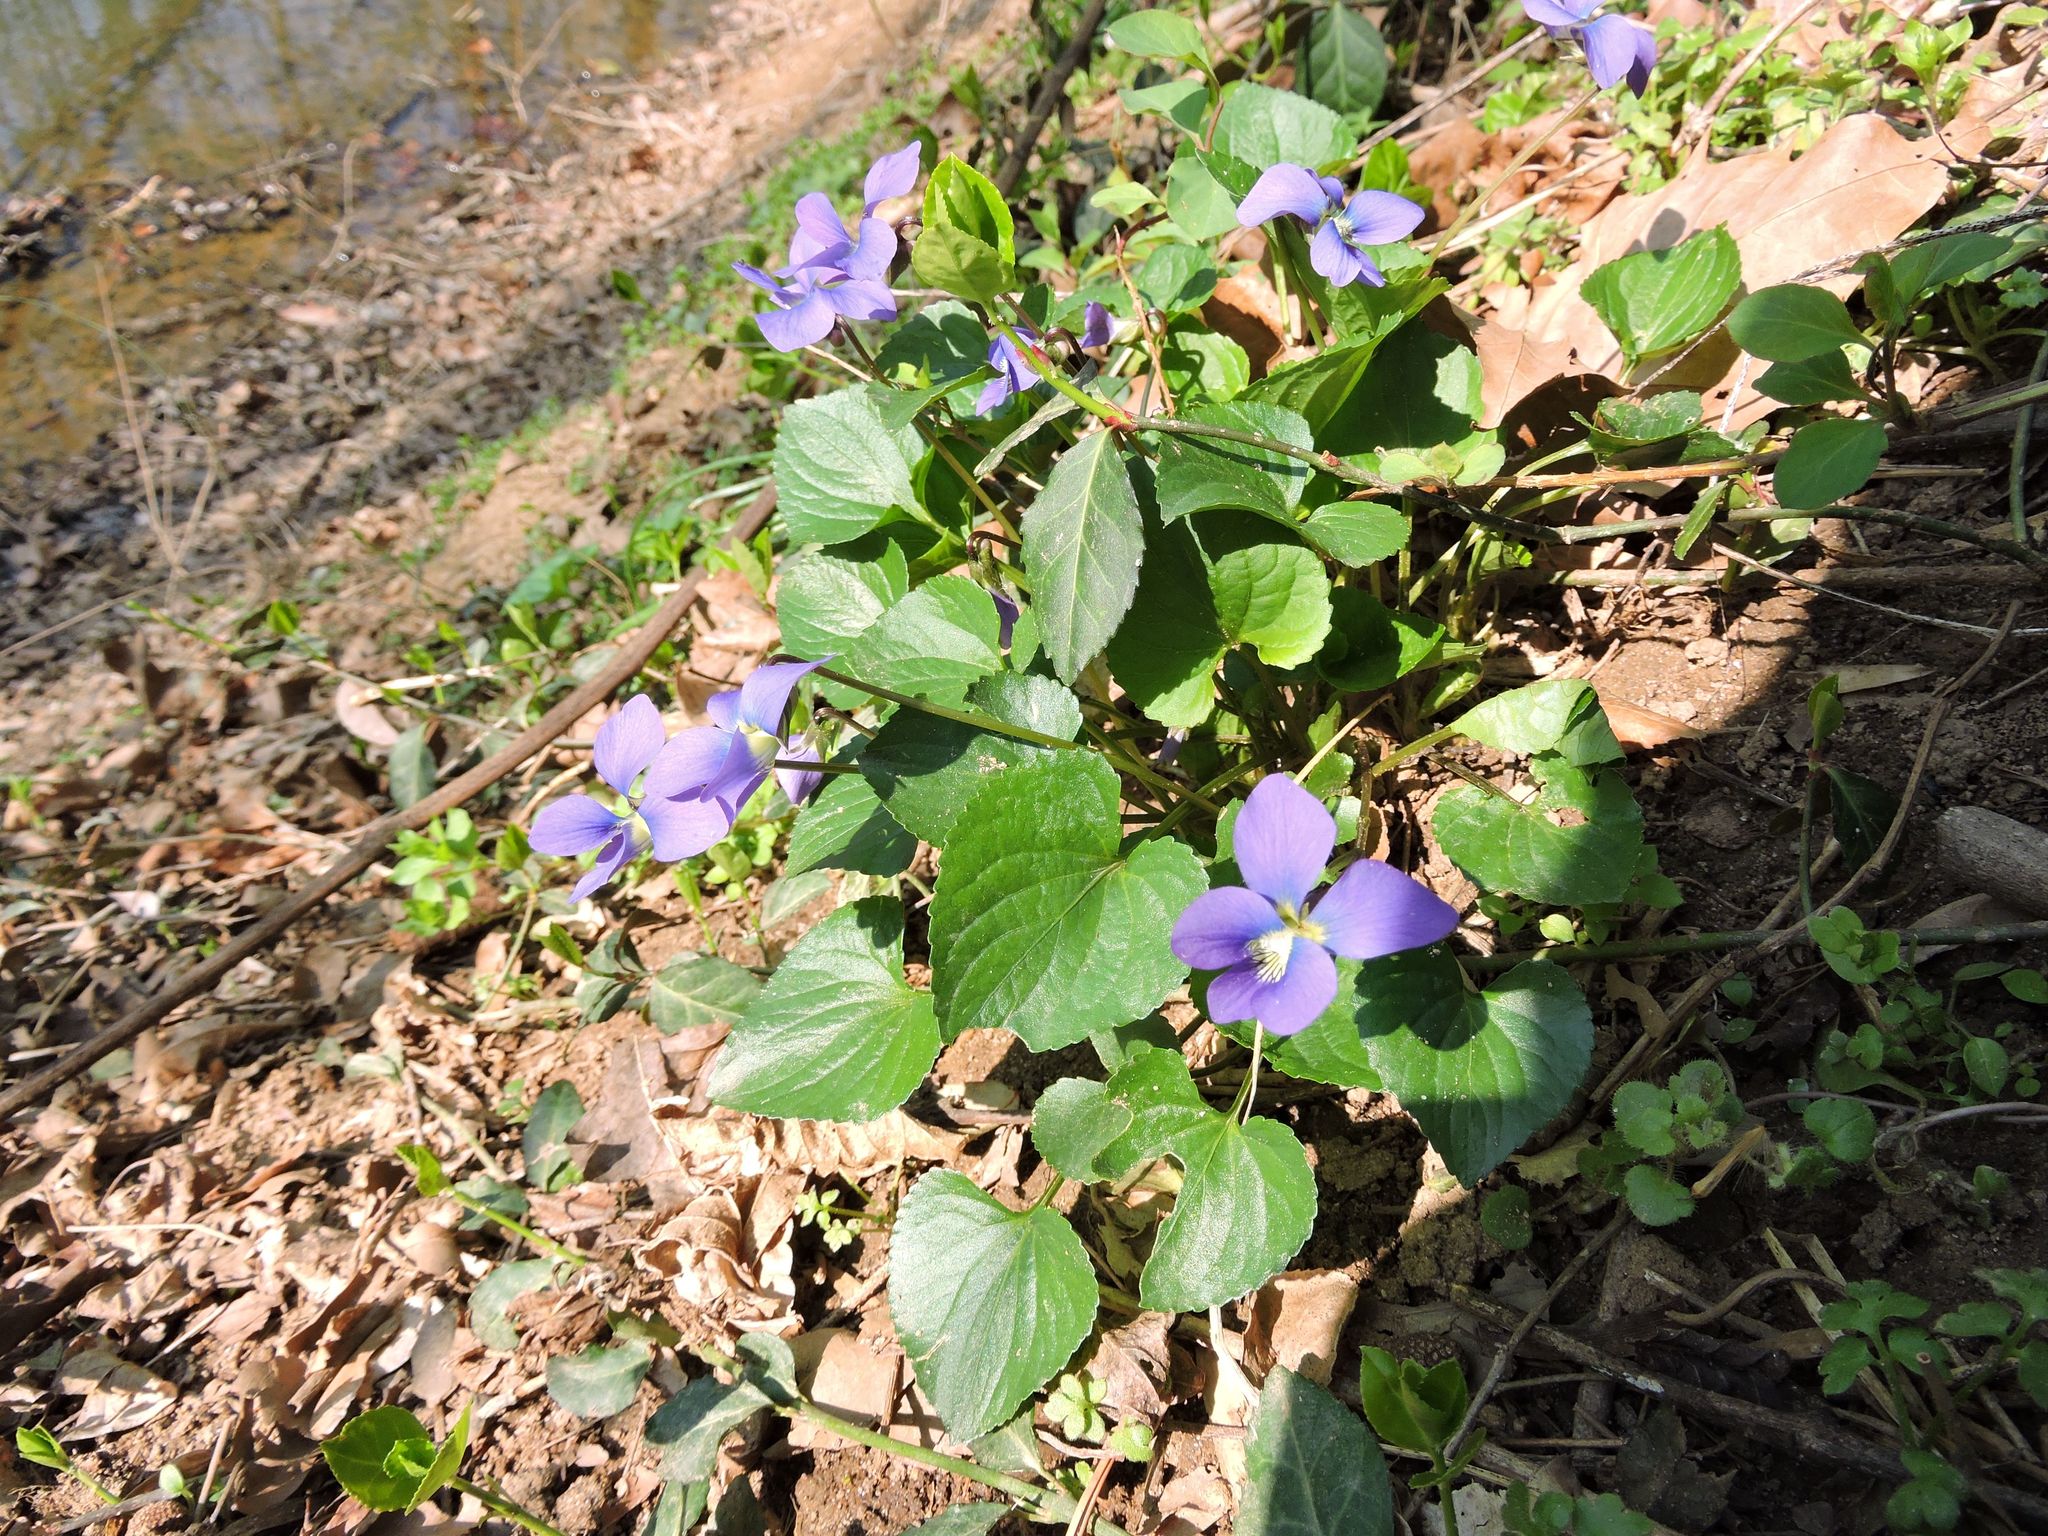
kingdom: Plantae
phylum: Tracheophyta
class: Magnoliopsida
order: Malpighiales
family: Violaceae
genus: Viola
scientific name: Viola sororia
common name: Dooryard violet
